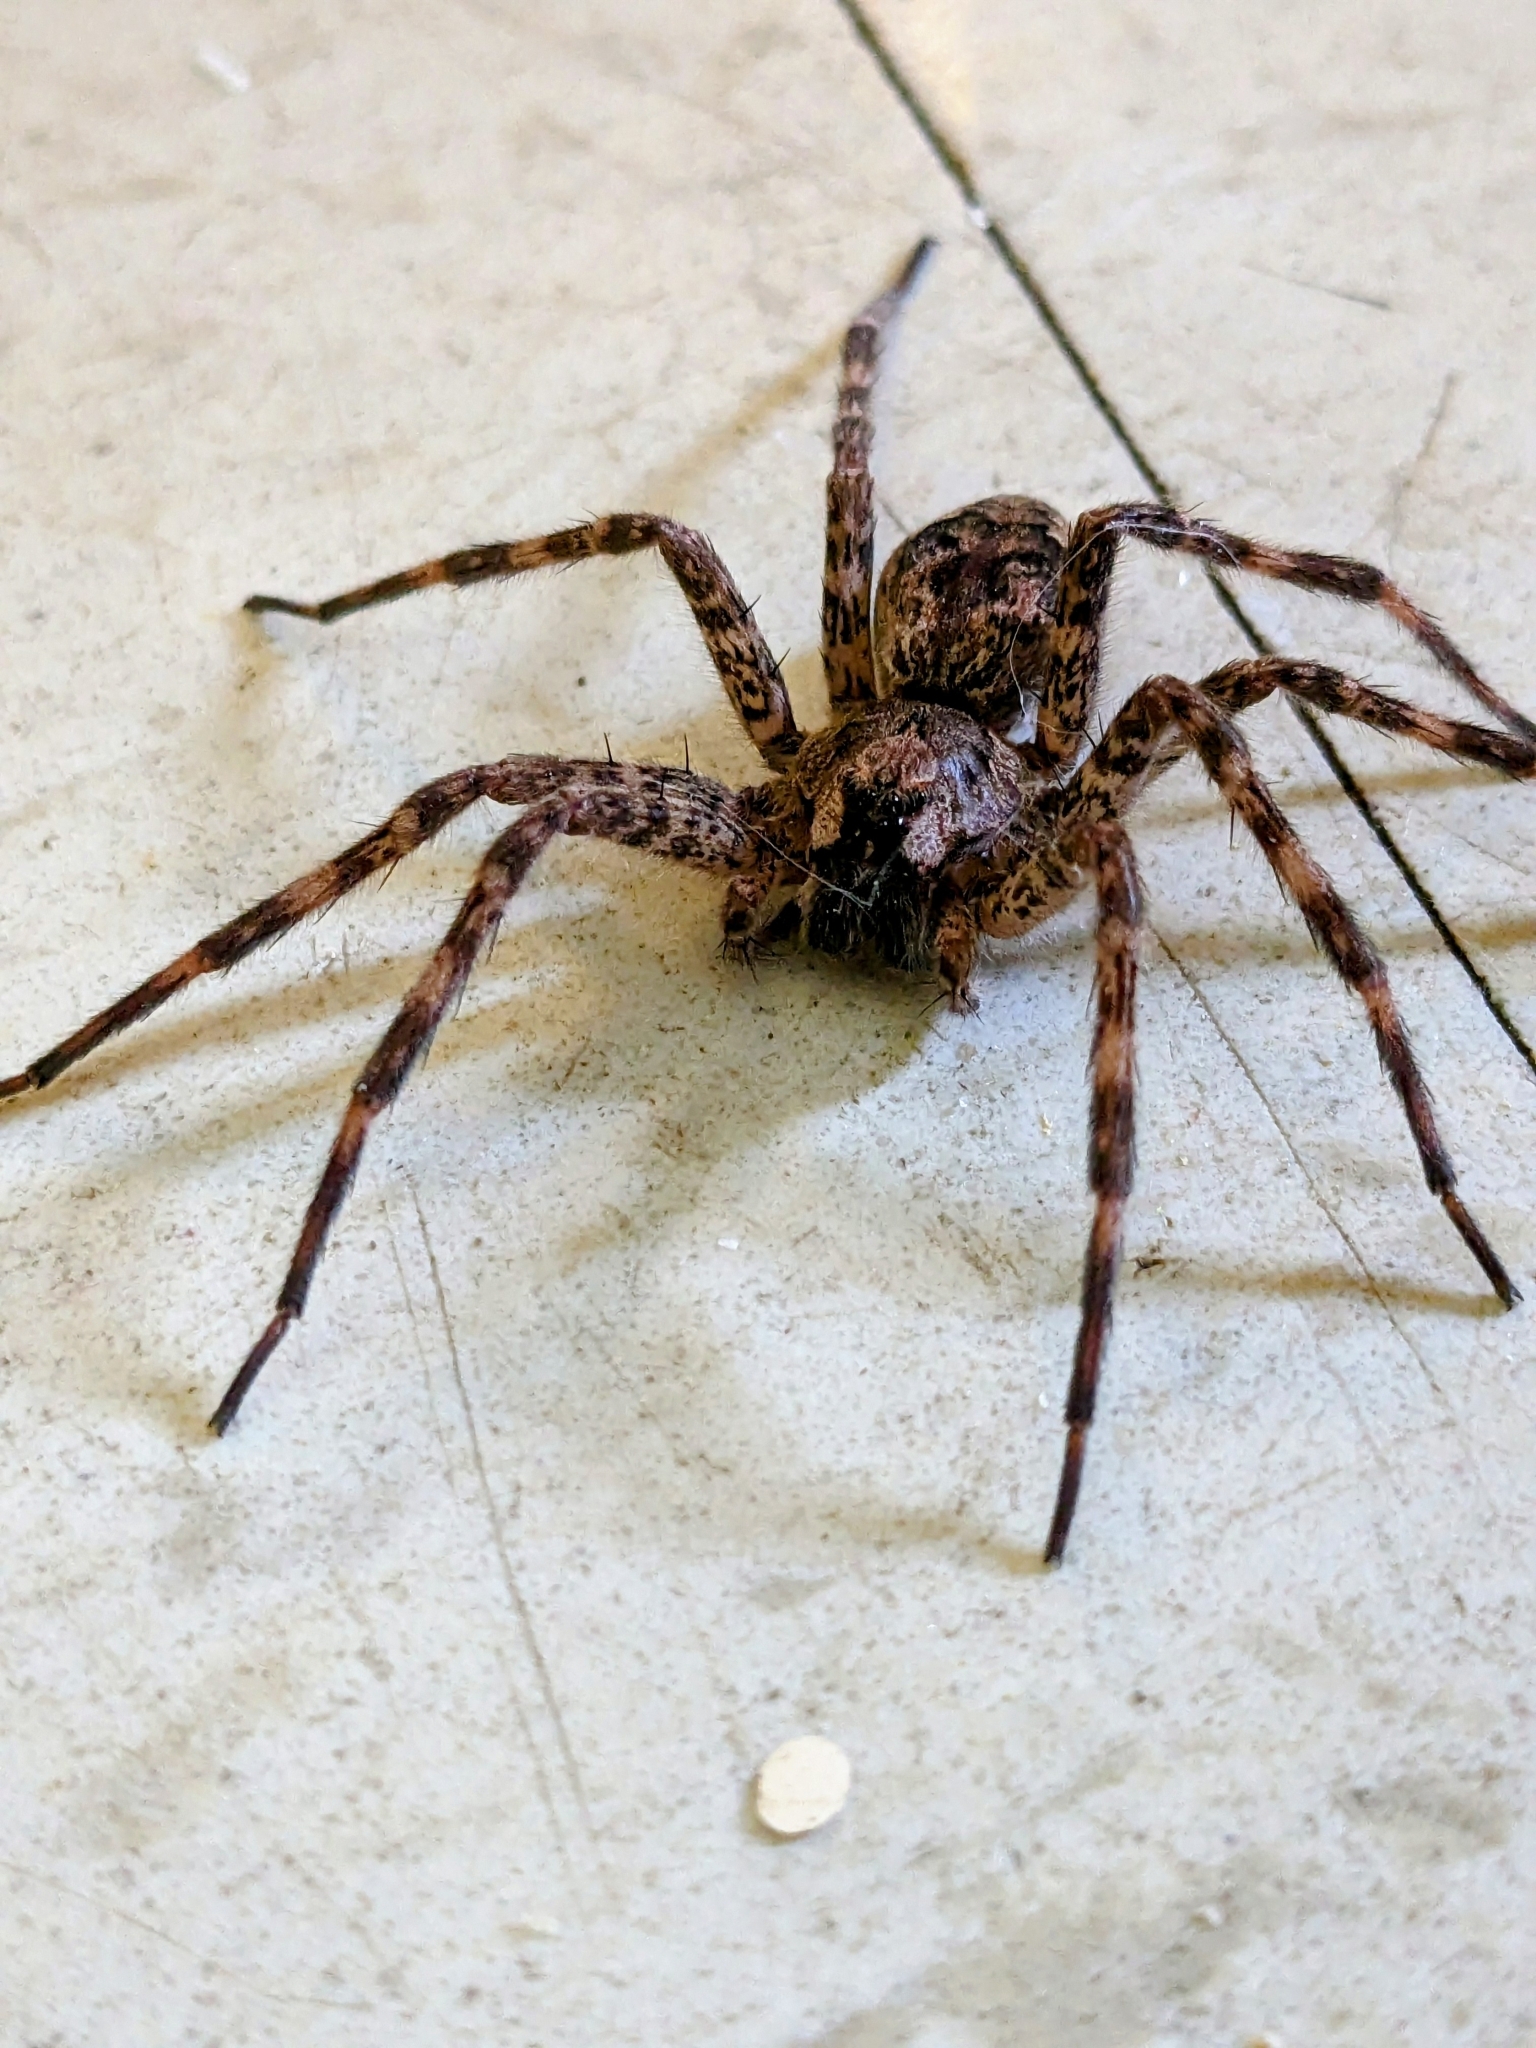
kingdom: Animalia
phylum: Arthropoda
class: Arachnida
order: Araneae
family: Pisauridae
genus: Dolomedes
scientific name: Dolomedes tenebrosus
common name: Dark fishing spider
